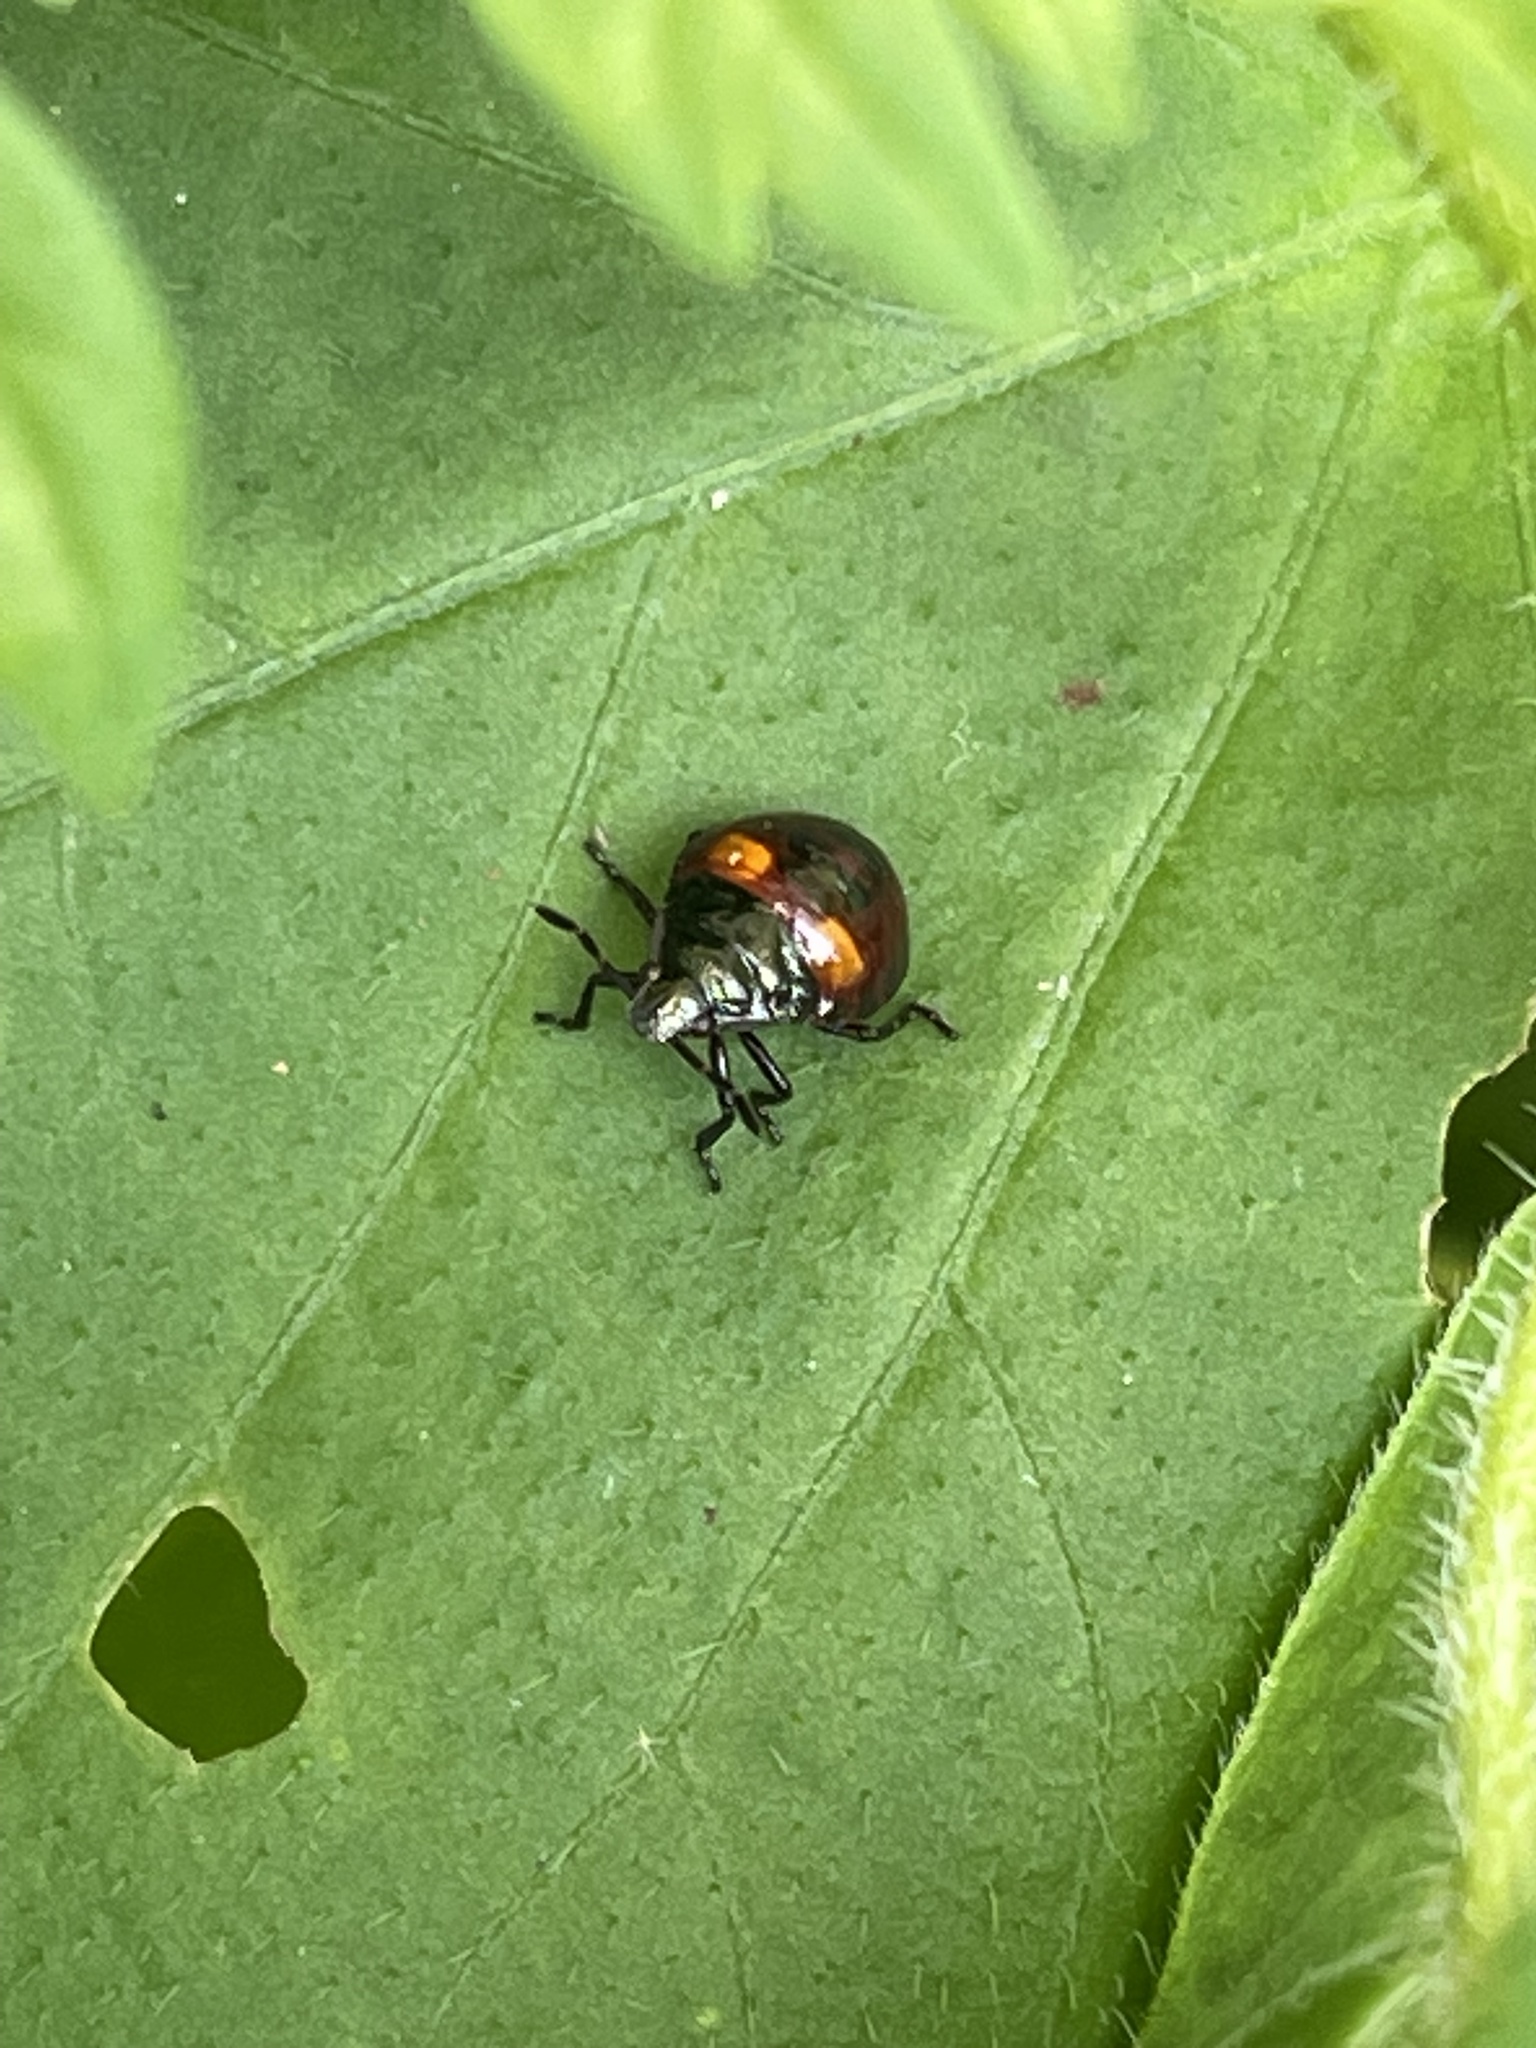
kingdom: Animalia
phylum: Arthropoda
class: Insecta
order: Hemiptera
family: Pentatomidae
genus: Cermatulus
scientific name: Cermatulus nasalis
